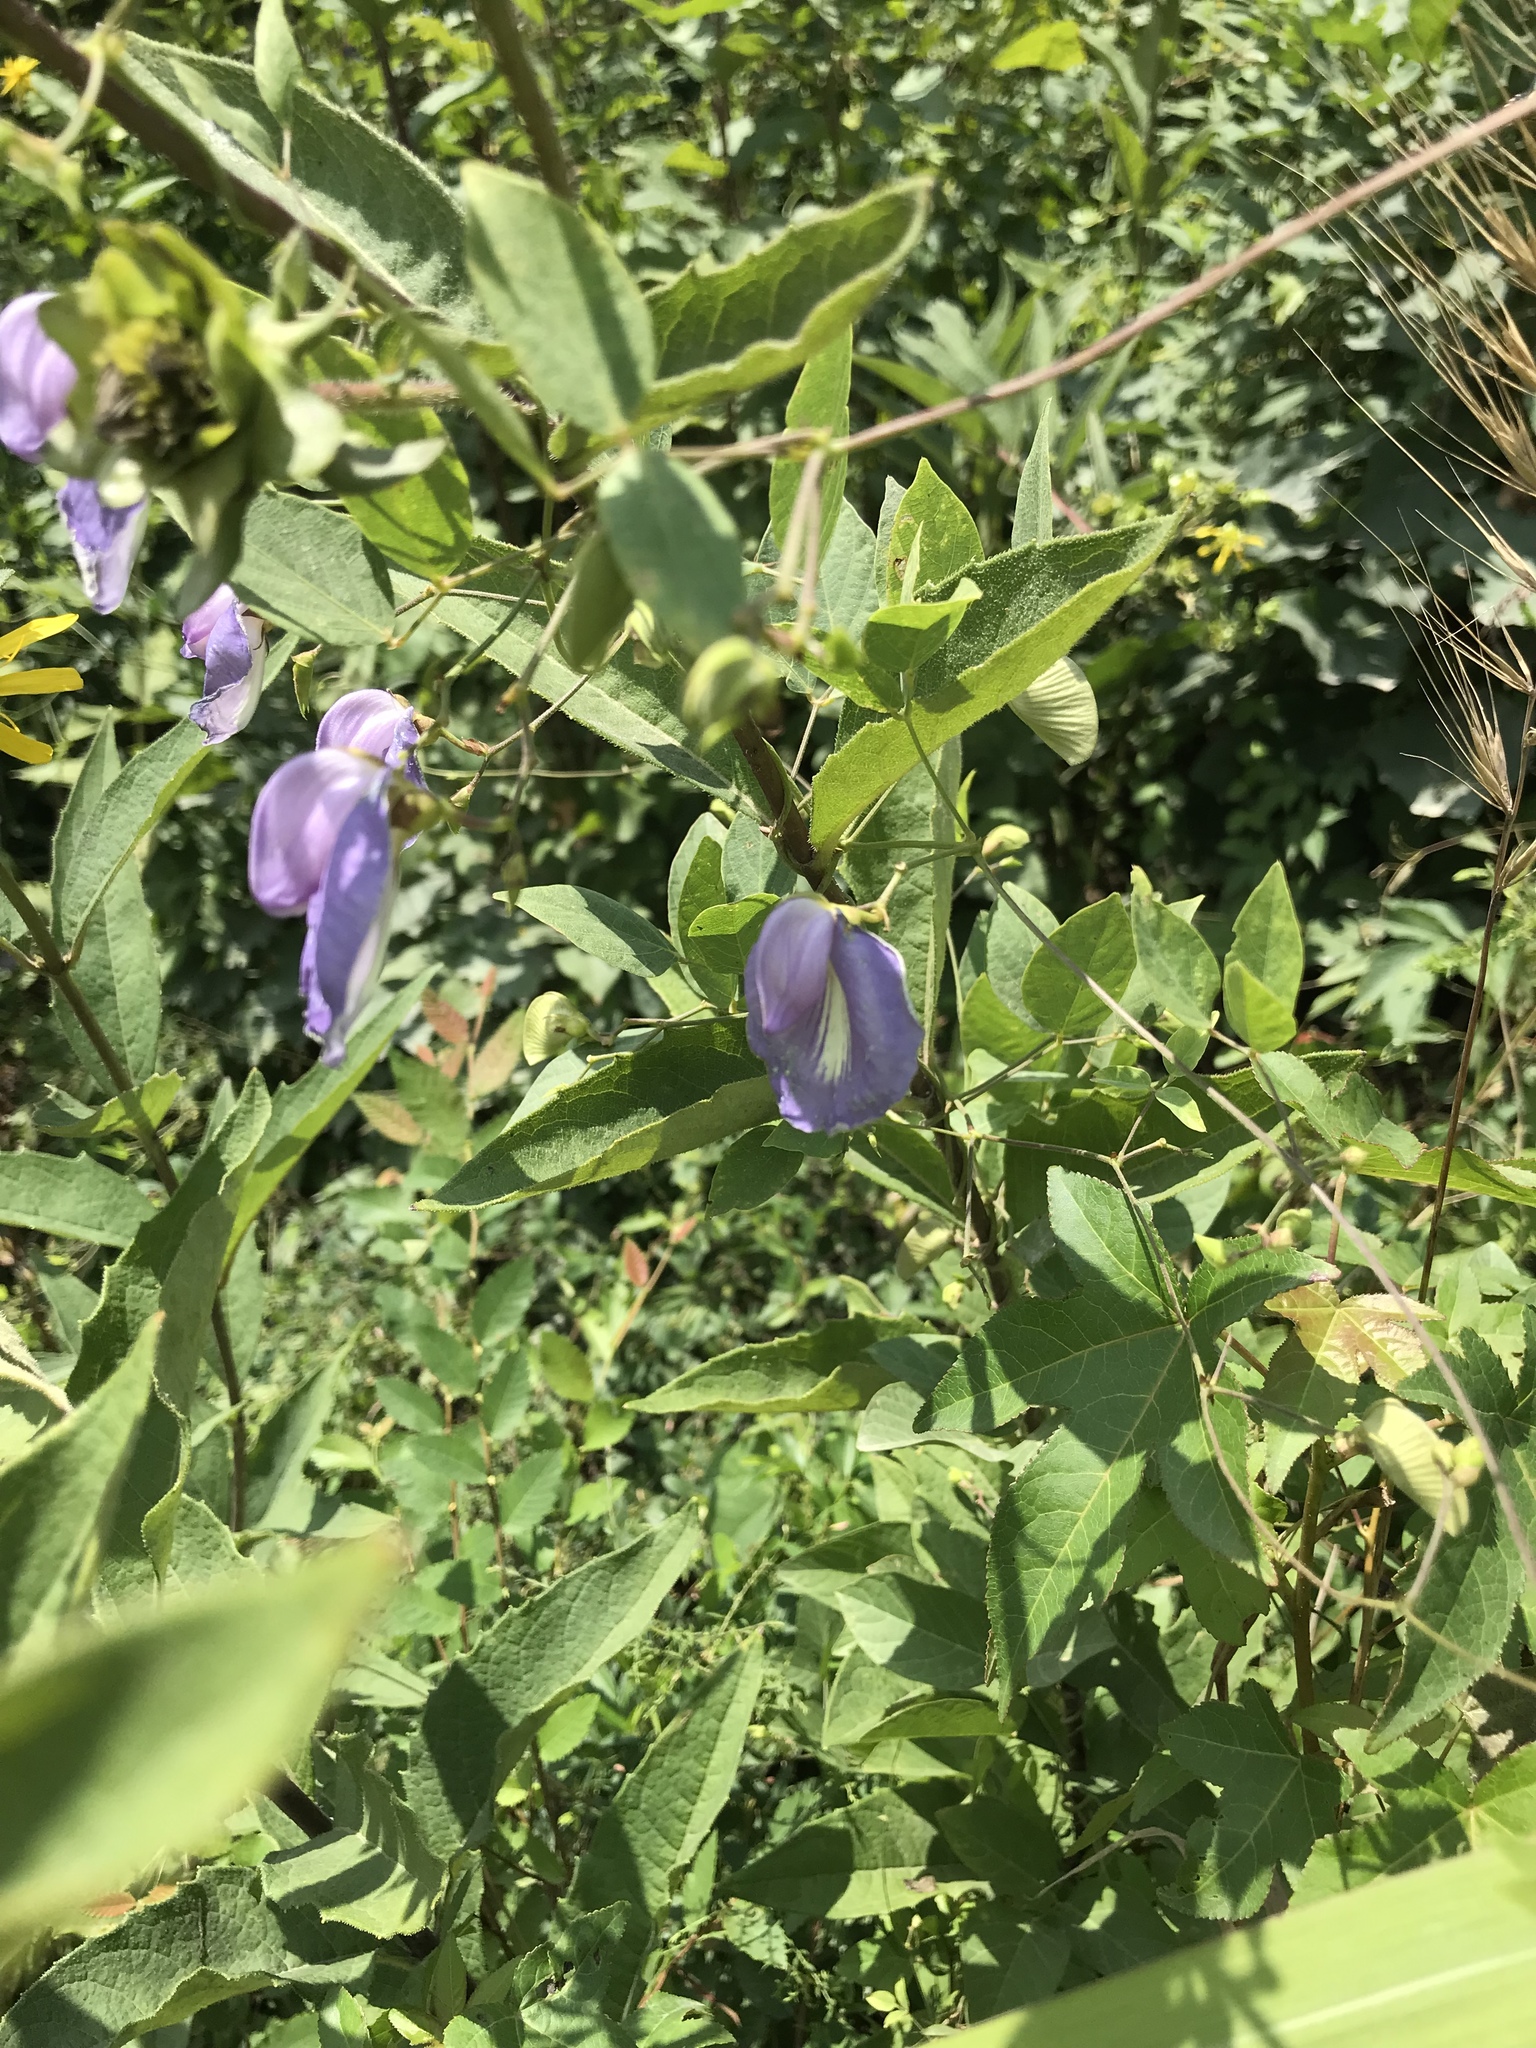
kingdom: Plantae
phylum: Tracheophyta
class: Magnoliopsida
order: Fabales
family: Fabaceae
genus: Centrosema
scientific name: Centrosema virginianum
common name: Butterfly-pea
